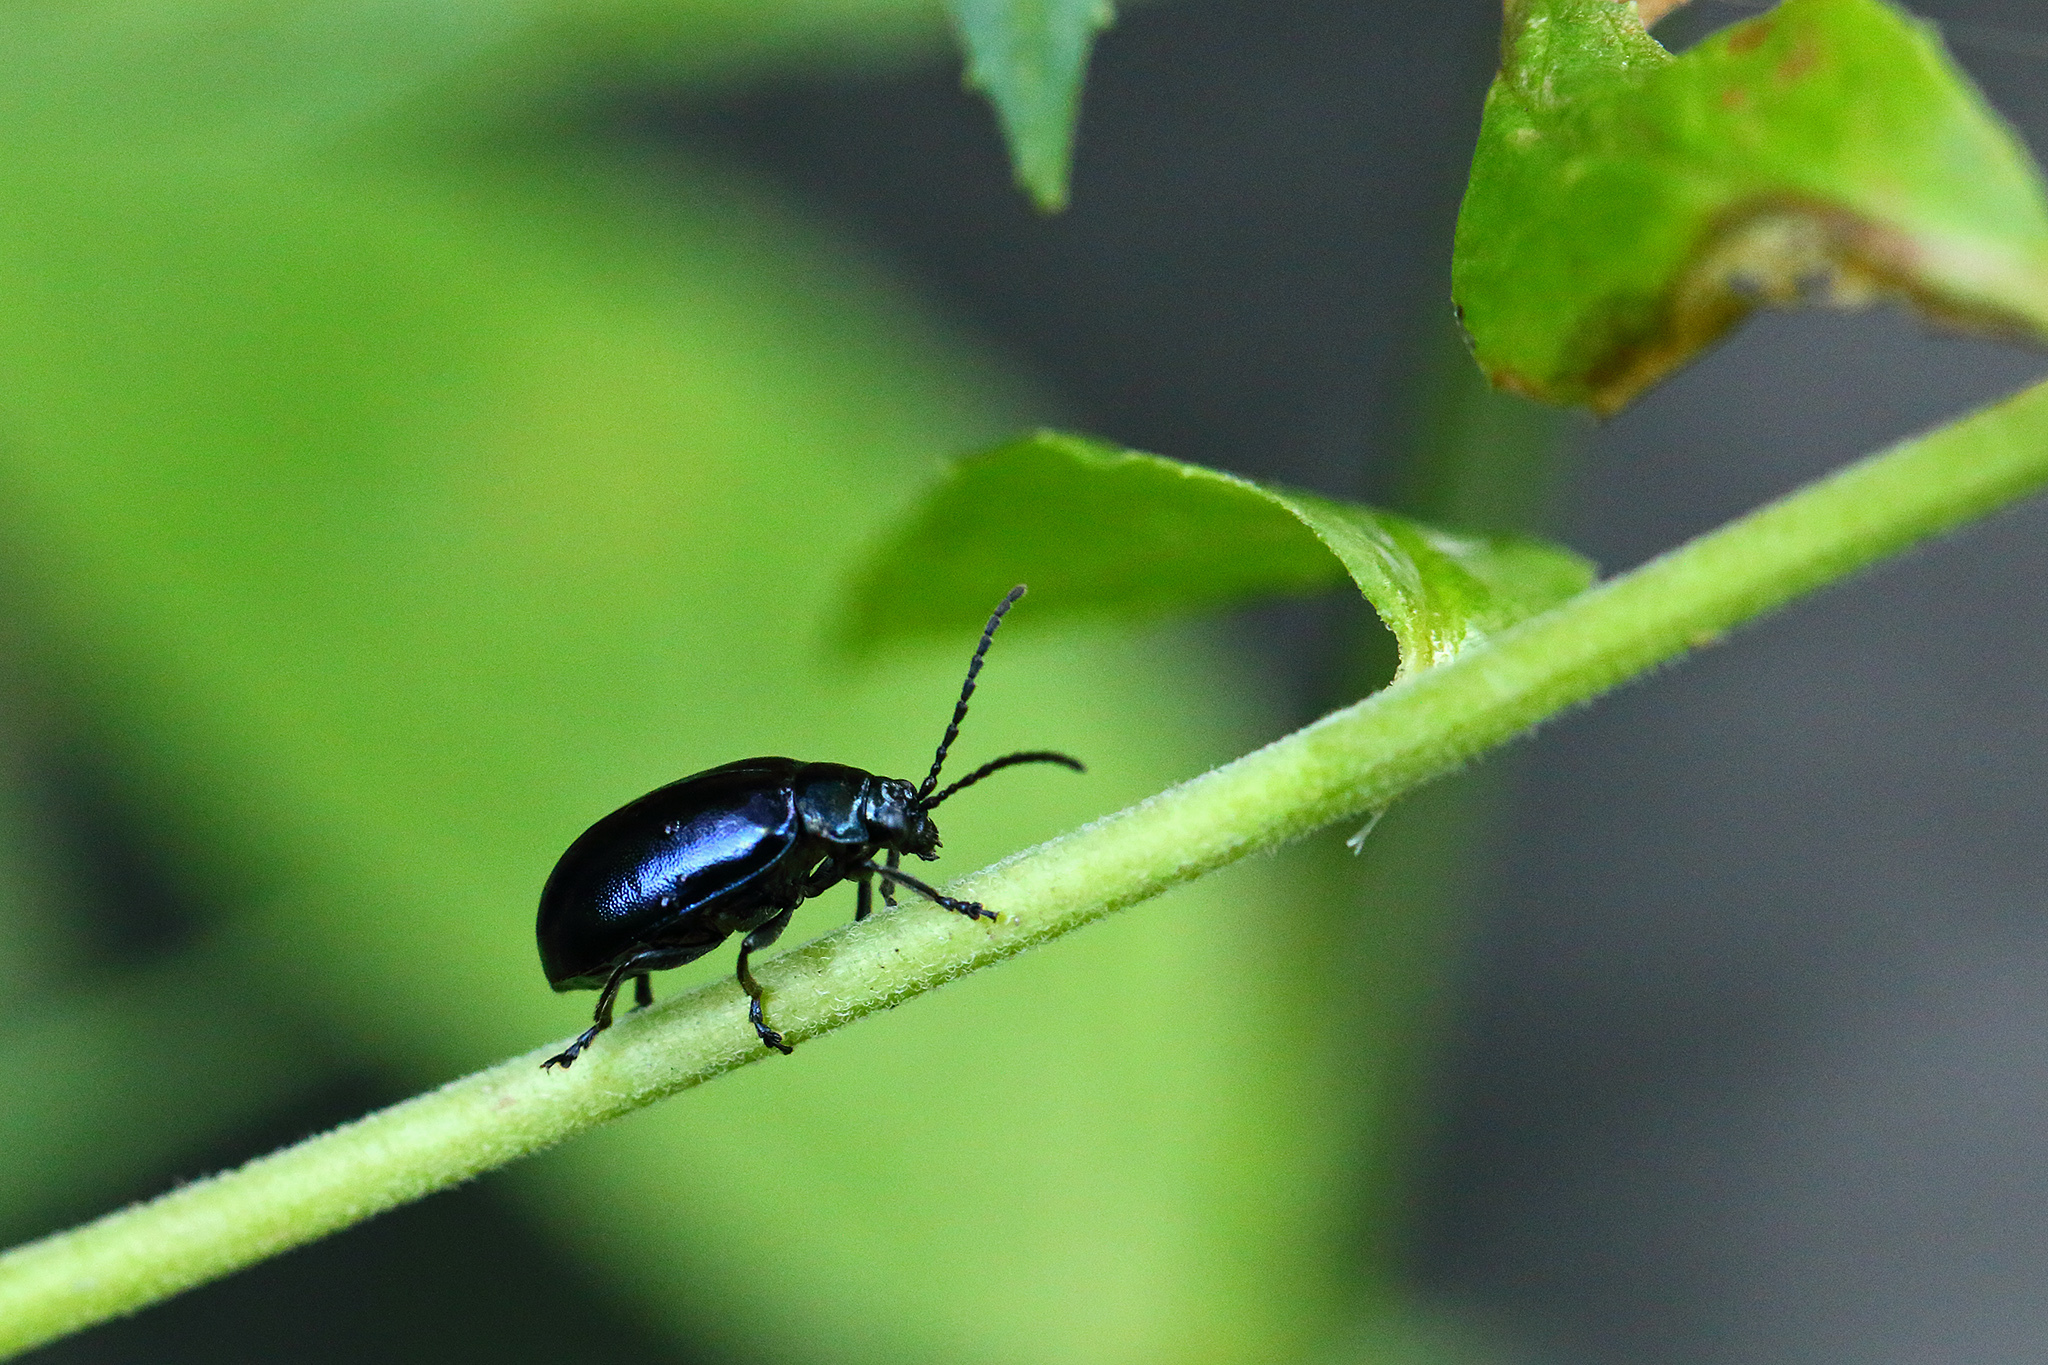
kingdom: Animalia
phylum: Arthropoda
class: Insecta
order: Coleoptera
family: Chrysomelidae
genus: Agelastica
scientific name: Agelastica alni
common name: Alder leaf beetle
